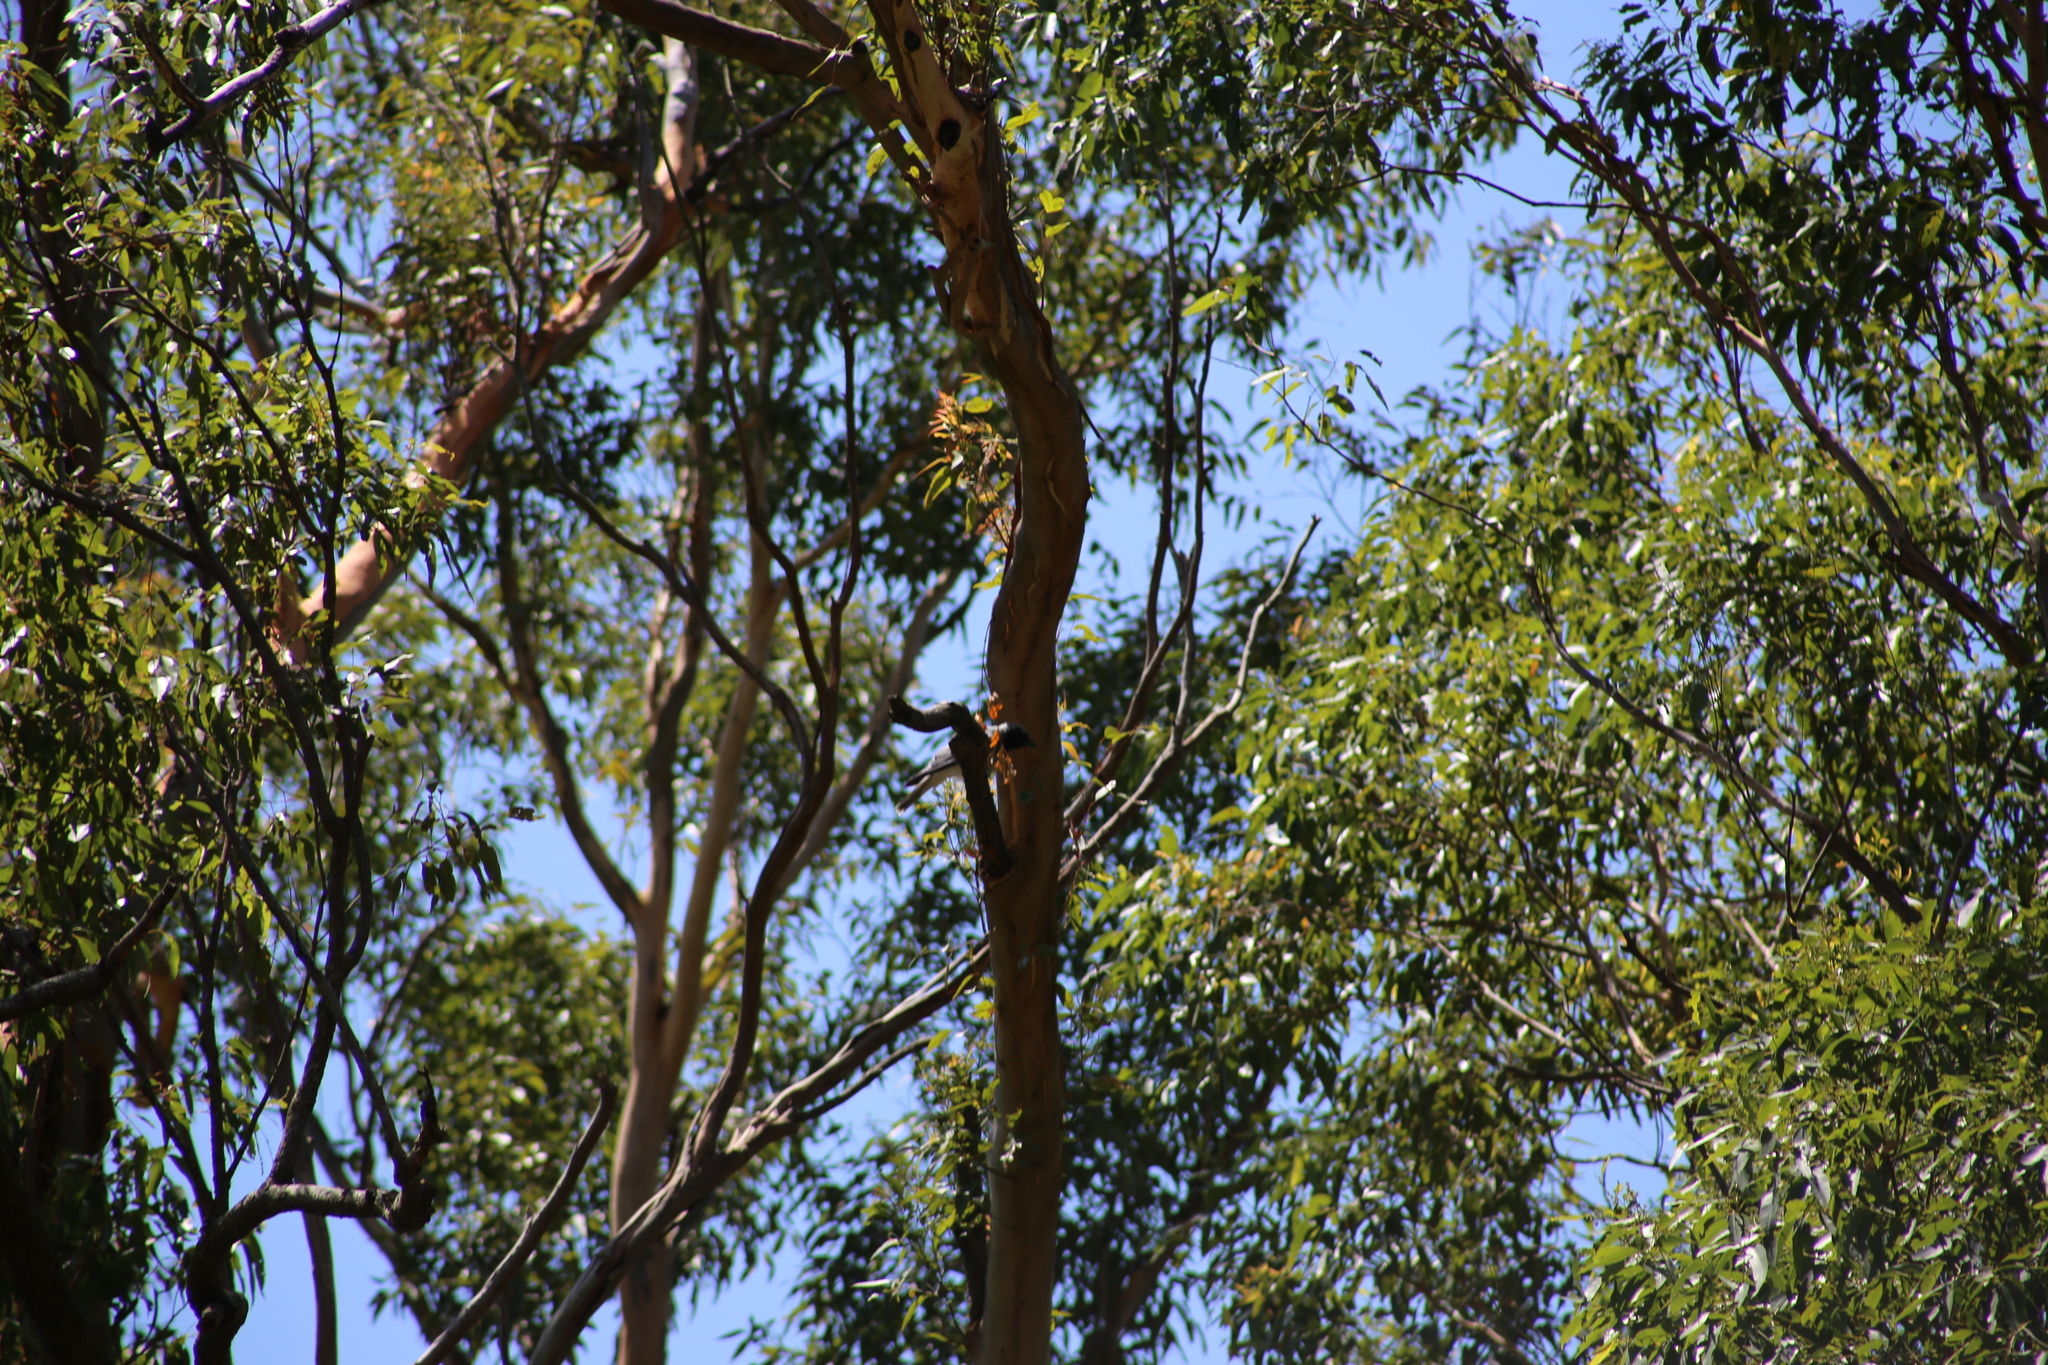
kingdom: Animalia
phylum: Chordata
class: Aves
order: Passeriformes
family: Oriolidae
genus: Oriolus
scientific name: Oriolus sagittatus
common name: Olive-backed oriole
